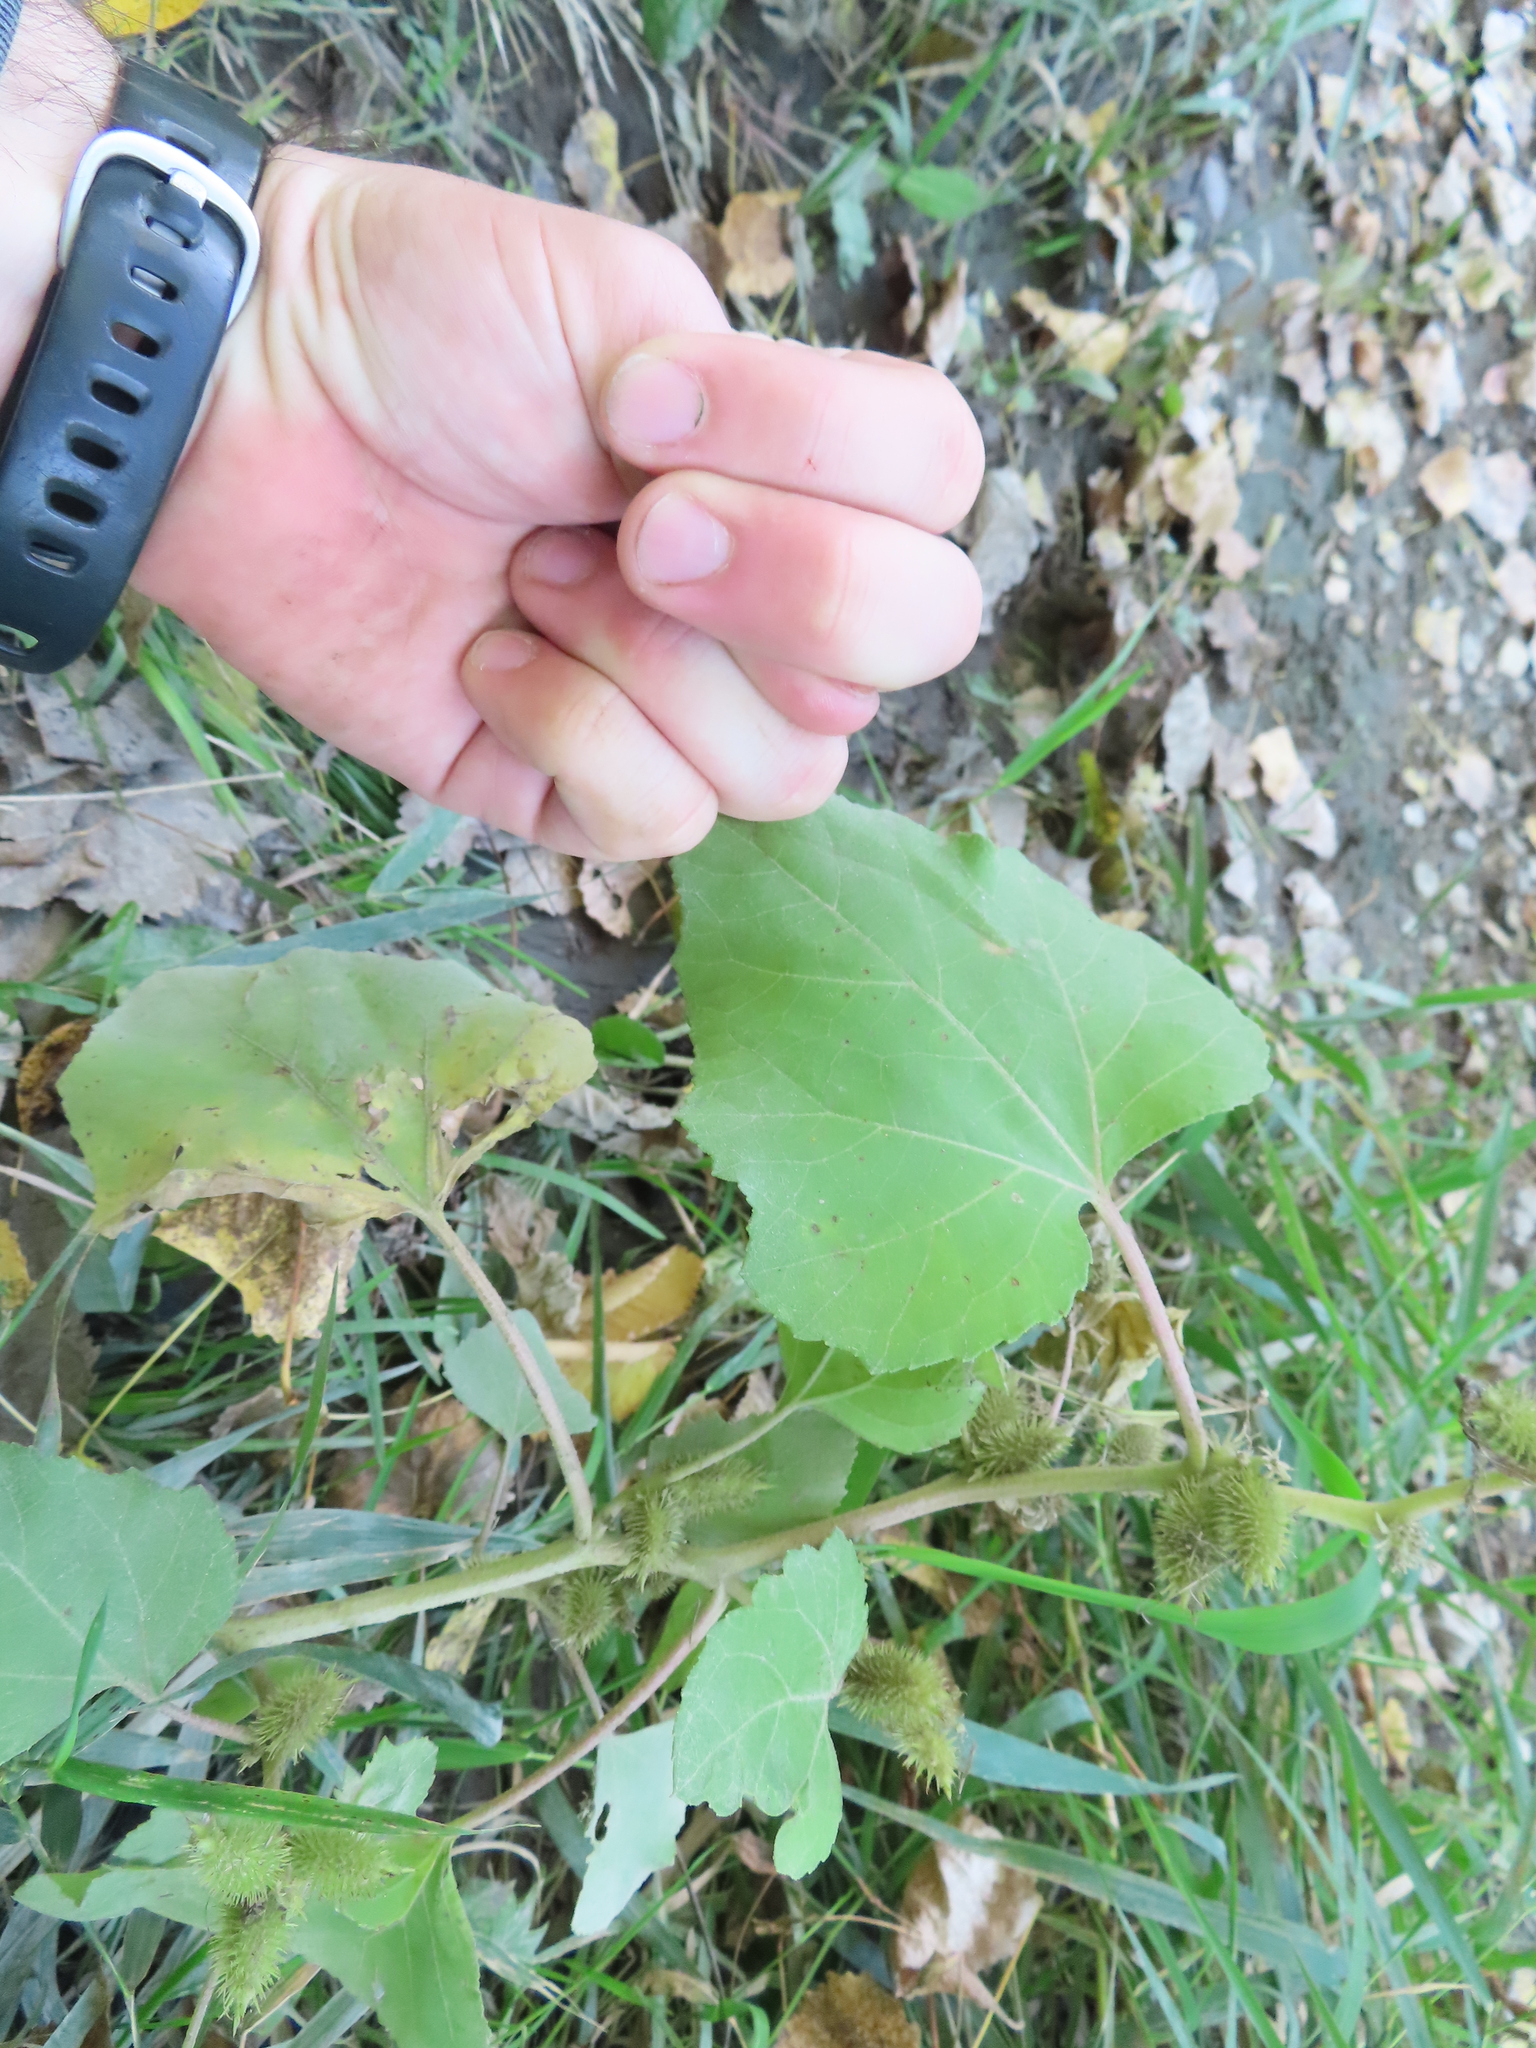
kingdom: Plantae
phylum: Tracheophyta
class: Magnoliopsida
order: Asterales
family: Asteraceae
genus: Xanthium
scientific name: Xanthium strumarium
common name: Rough cocklebur
